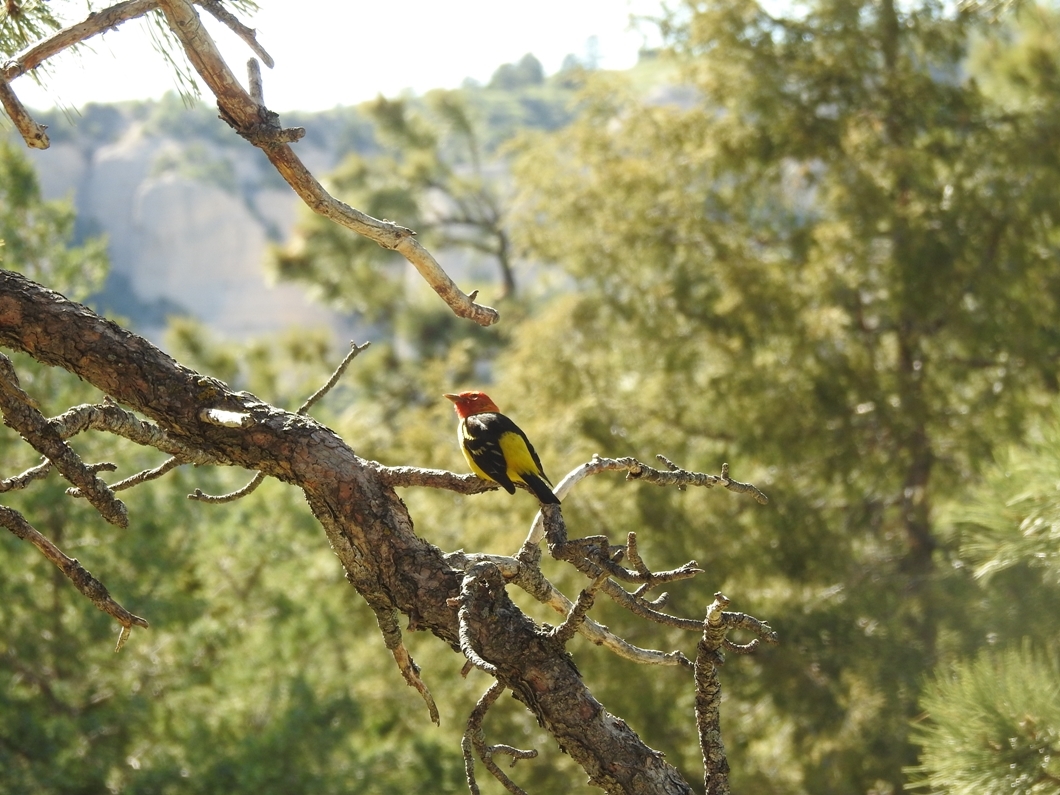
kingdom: Animalia
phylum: Chordata
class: Aves
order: Passeriformes
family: Cardinalidae
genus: Piranga
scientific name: Piranga ludoviciana
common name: Western tanager
